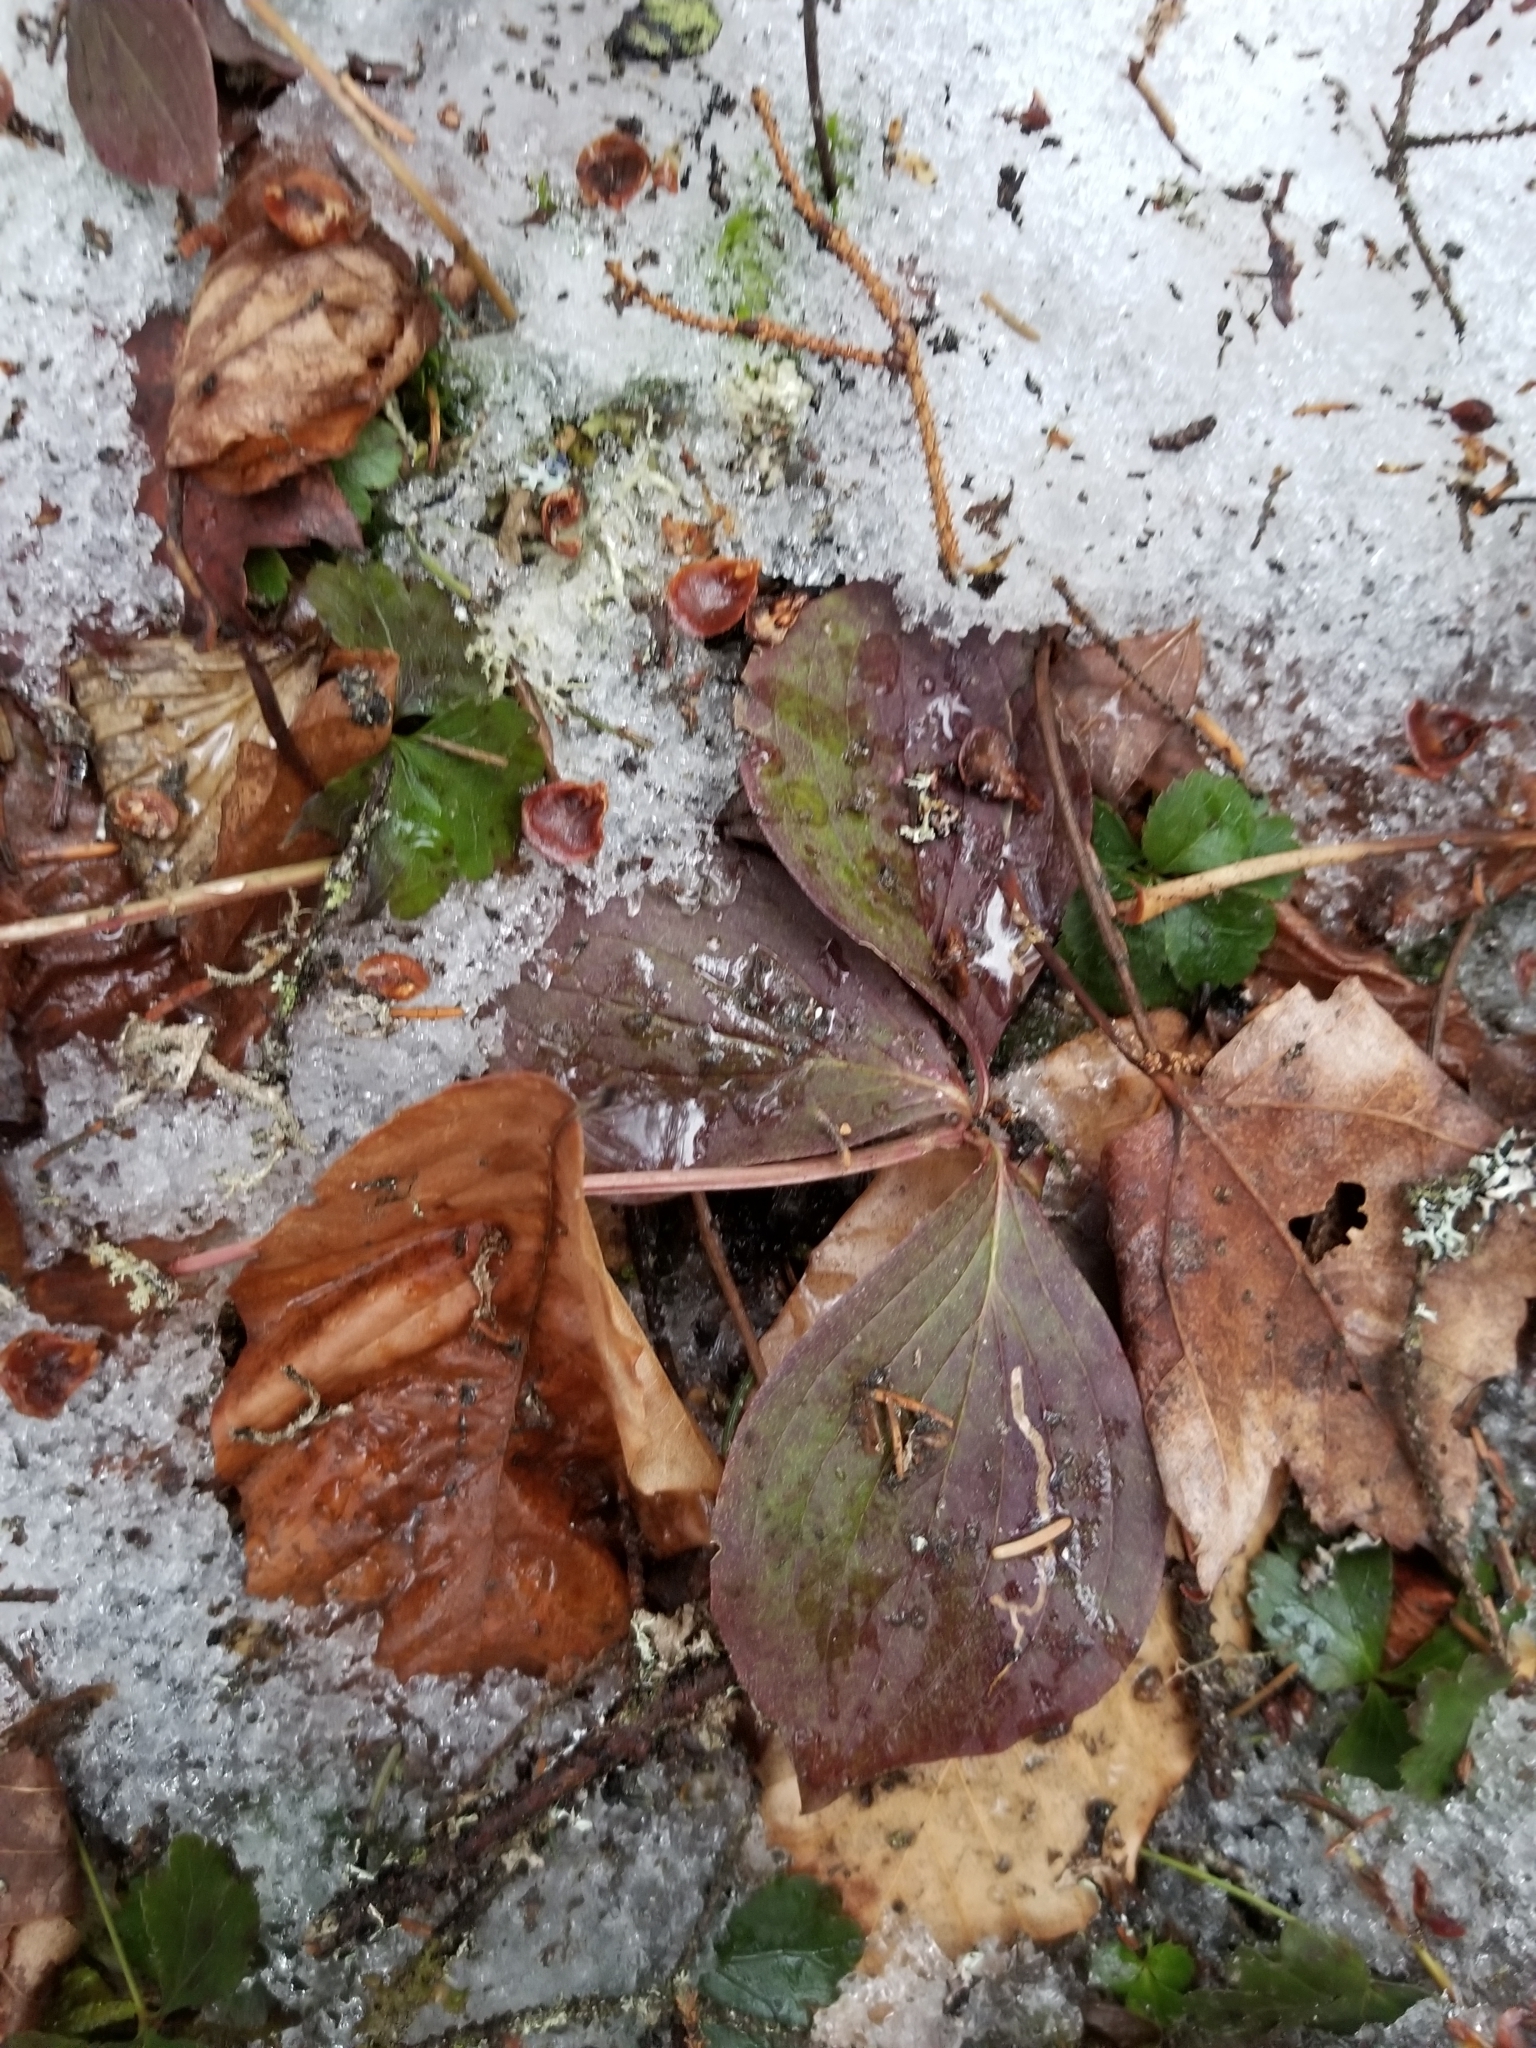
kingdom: Plantae
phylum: Tracheophyta
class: Magnoliopsida
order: Cornales
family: Cornaceae
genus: Cornus
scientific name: Cornus canadensis
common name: Creeping dogwood
